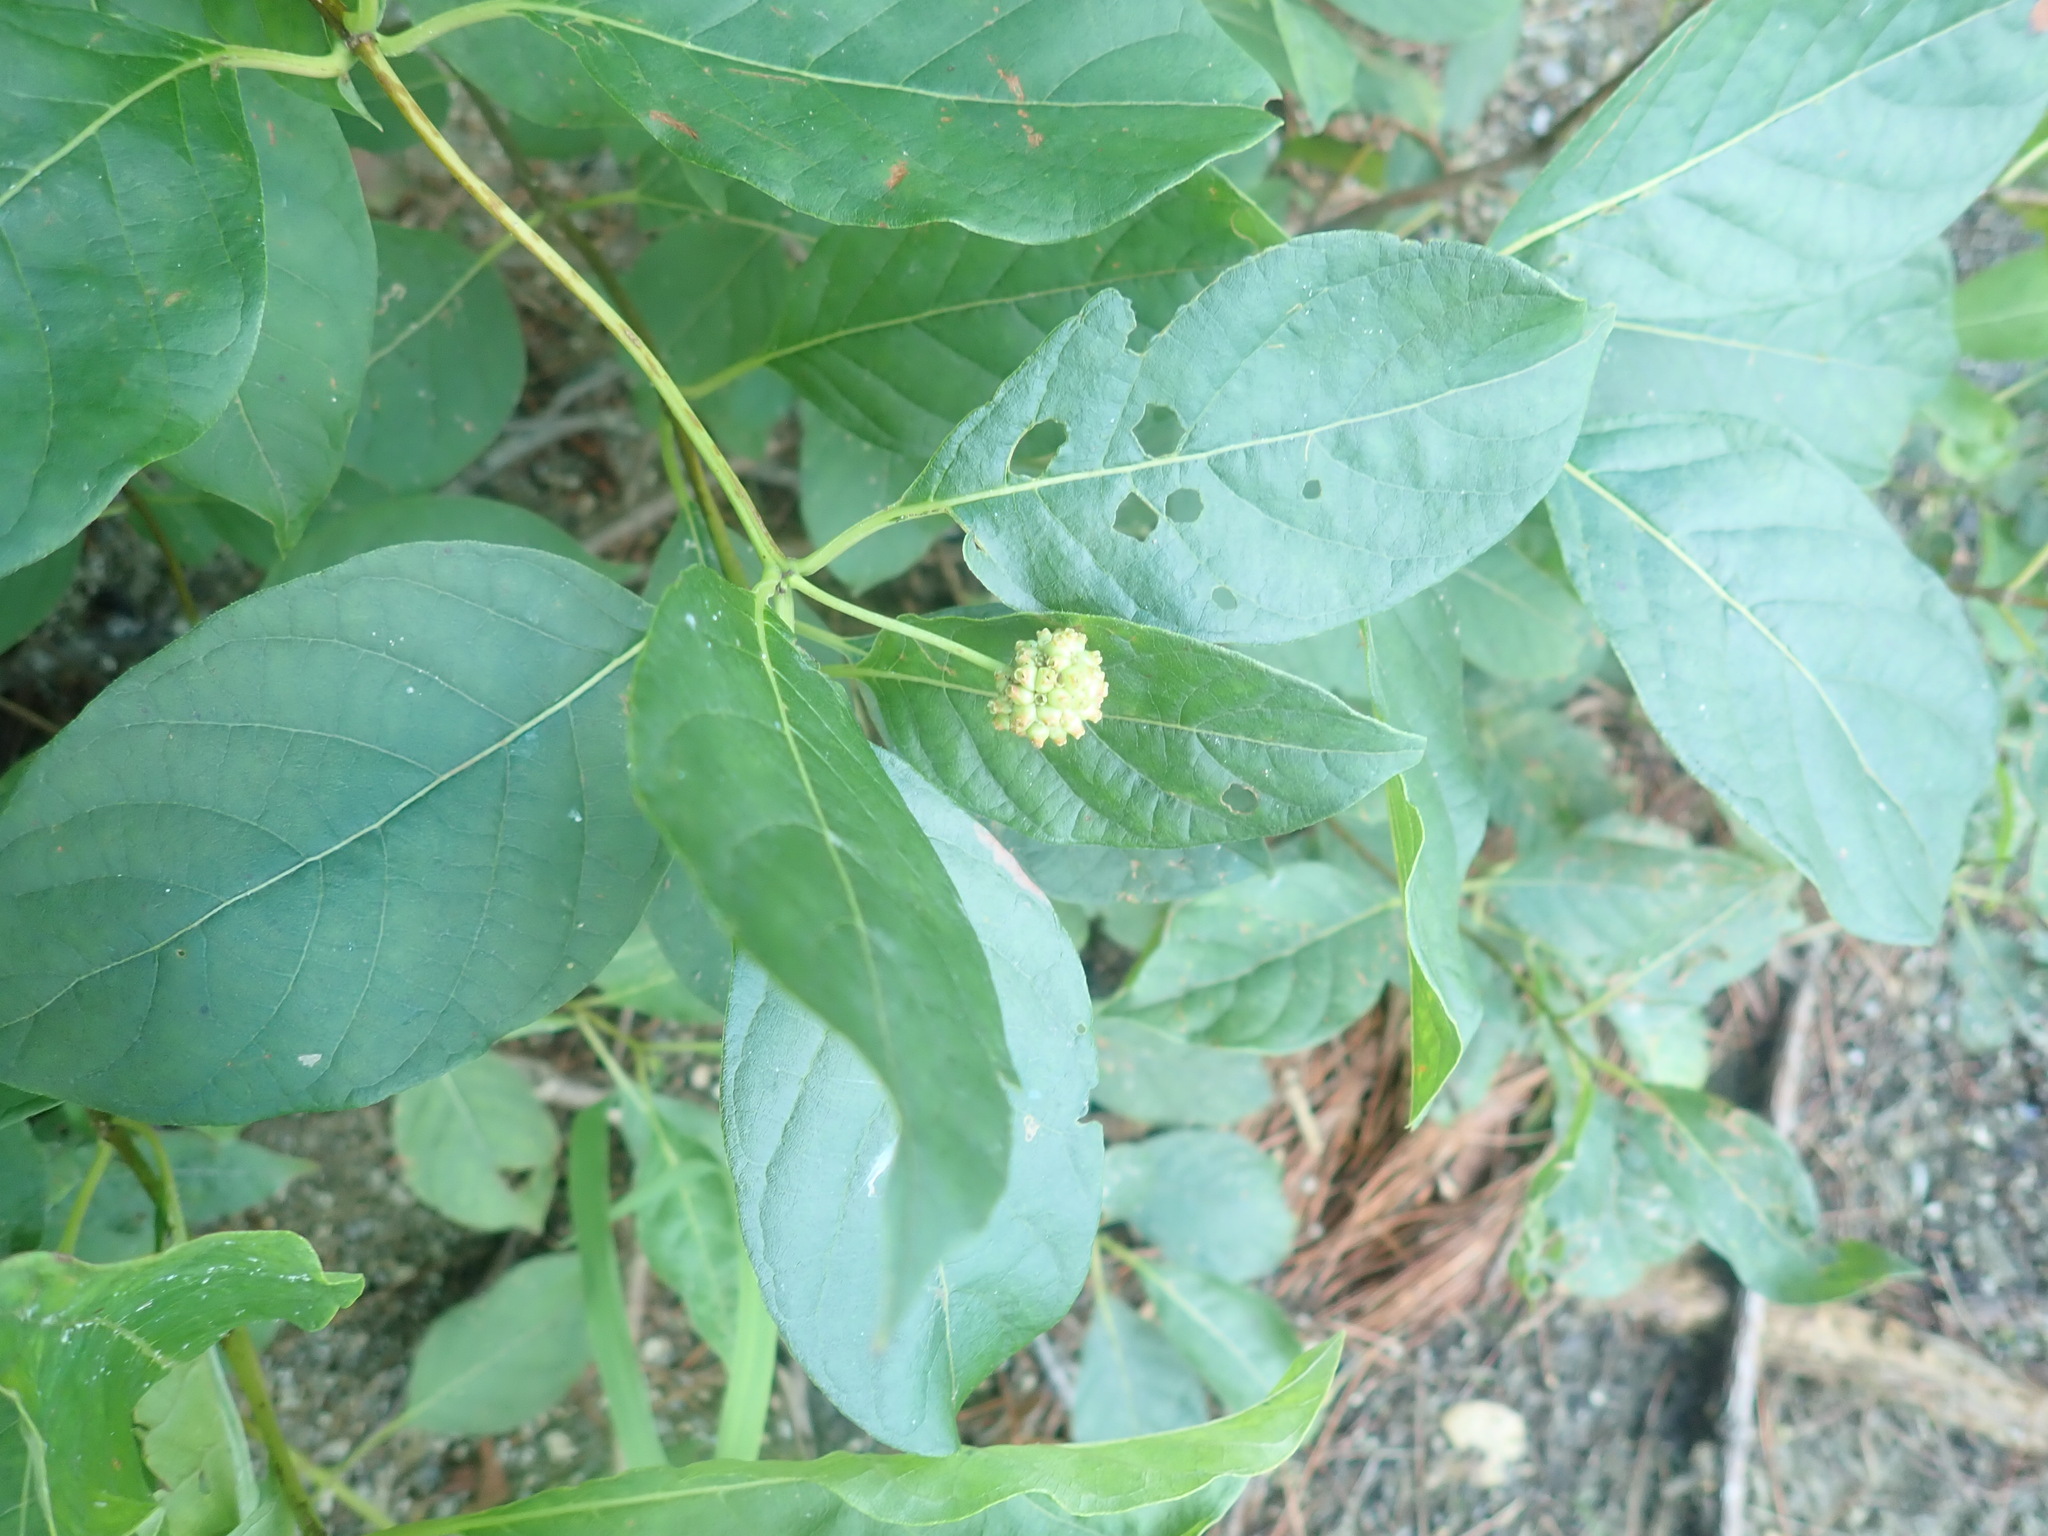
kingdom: Plantae
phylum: Tracheophyta
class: Magnoliopsida
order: Gentianales
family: Rubiaceae
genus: Cephalanthus
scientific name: Cephalanthus occidentalis
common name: Button-willow
